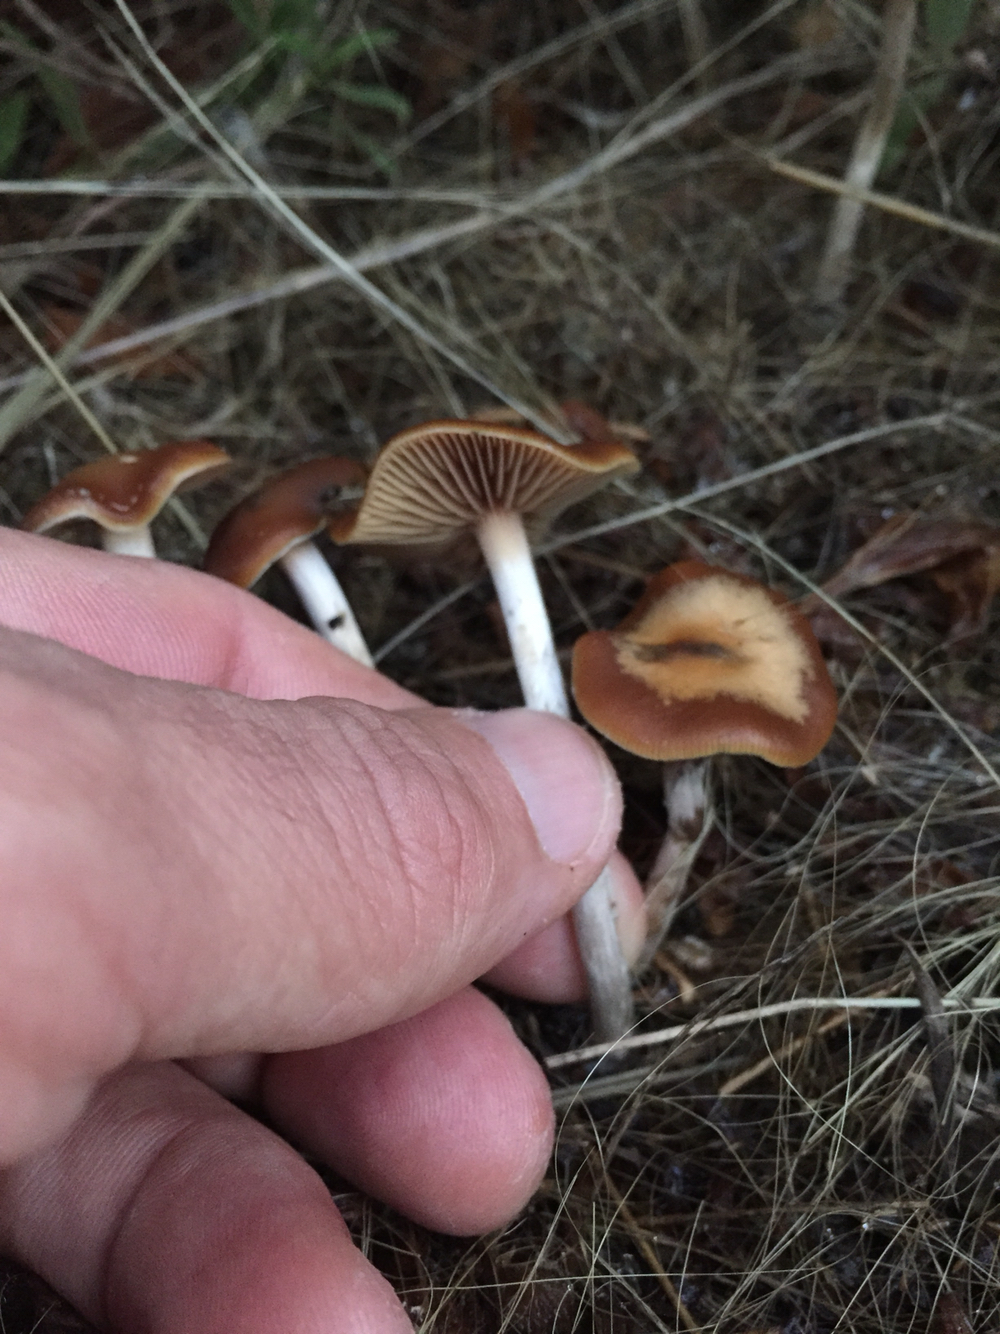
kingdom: Fungi
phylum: Basidiomycota
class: Agaricomycetes
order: Agaricales
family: Hymenogastraceae
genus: Psilocybe
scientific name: Psilocybe cyanescens
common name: Blueleg brownie
